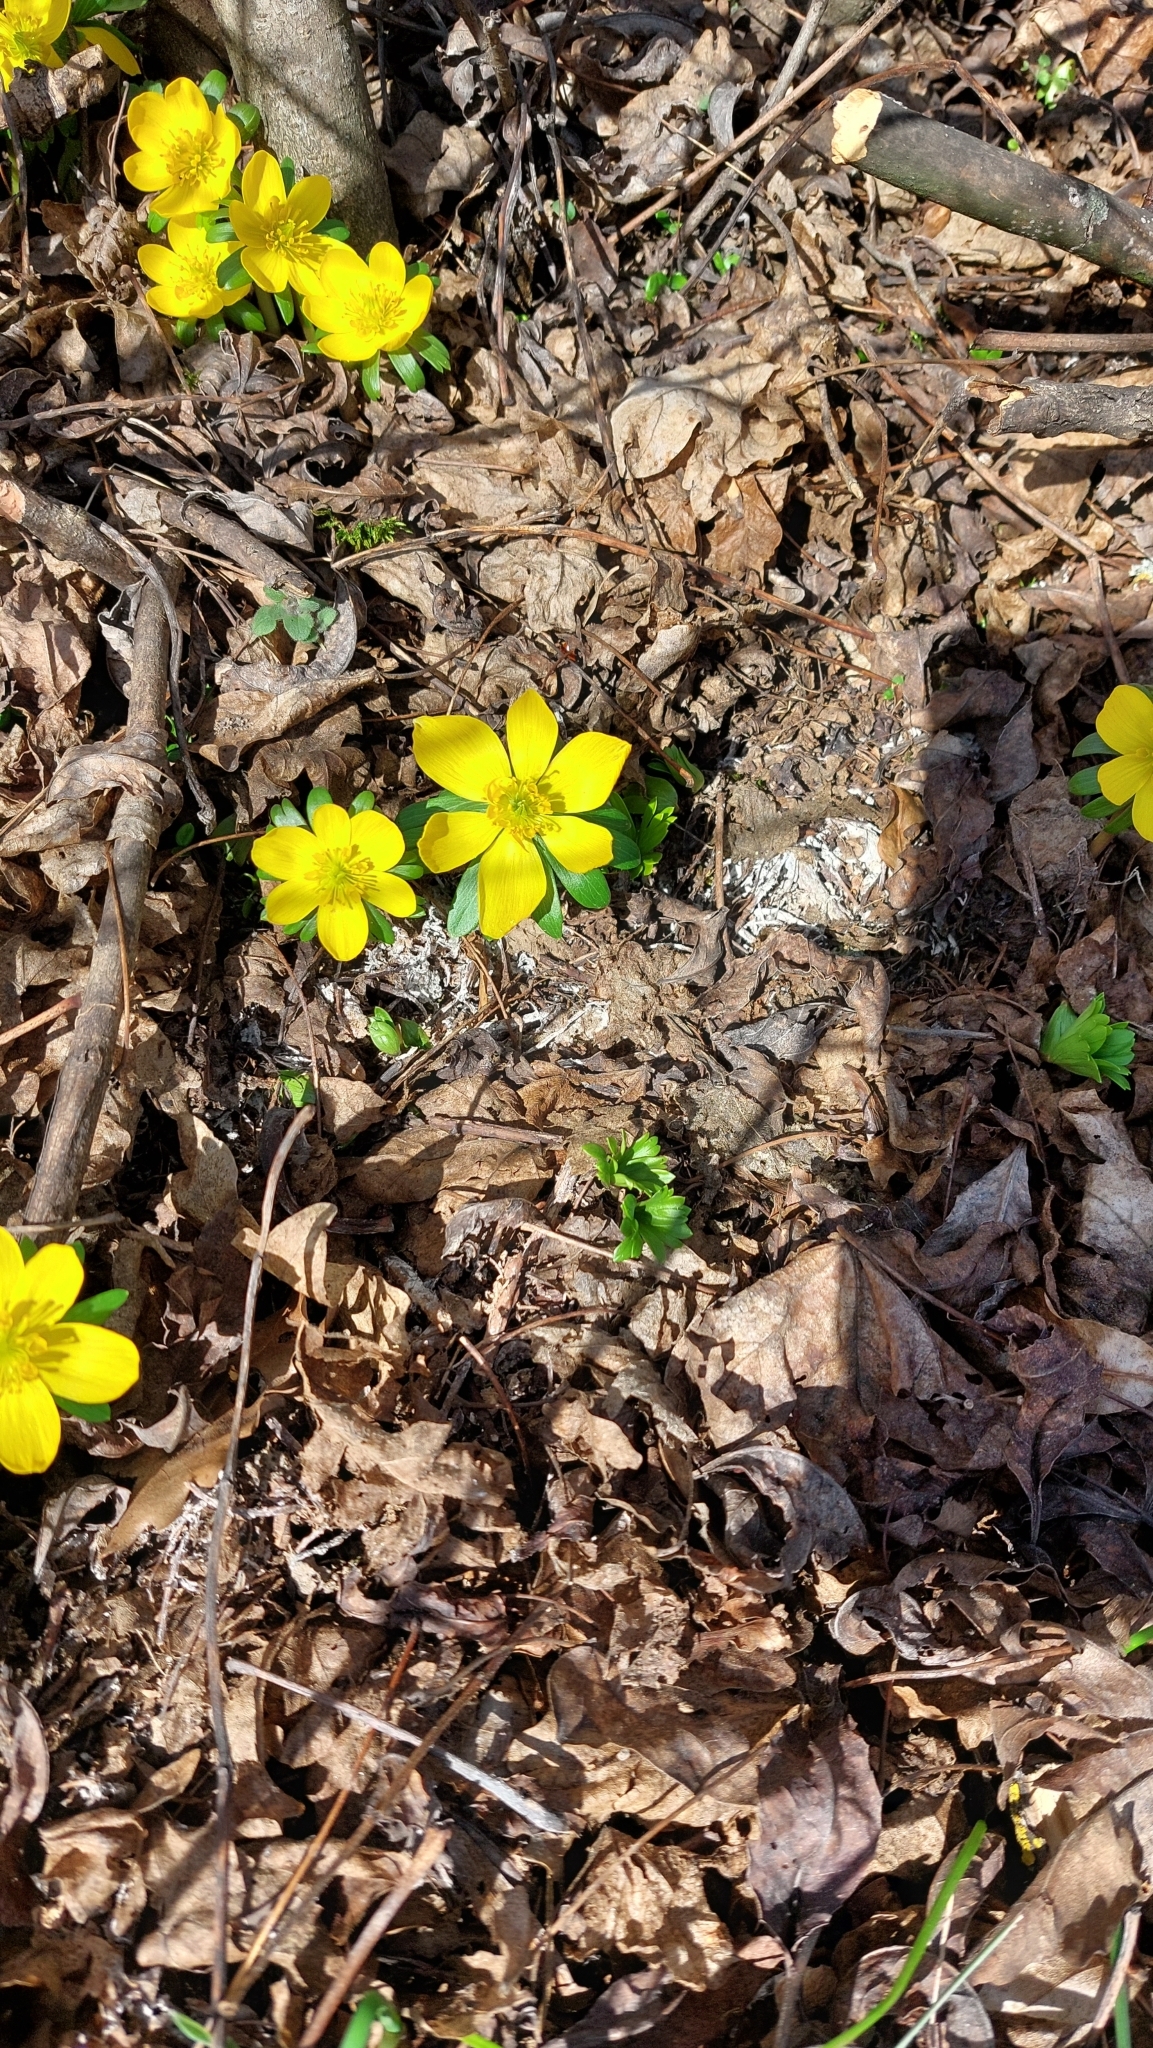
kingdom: Plantae
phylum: Tracheophyta
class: Magnoliopsida
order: Ranunculales
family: Ranunculaceae
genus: Eranthis
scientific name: Eranthis hyemalis
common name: Winter aconite
